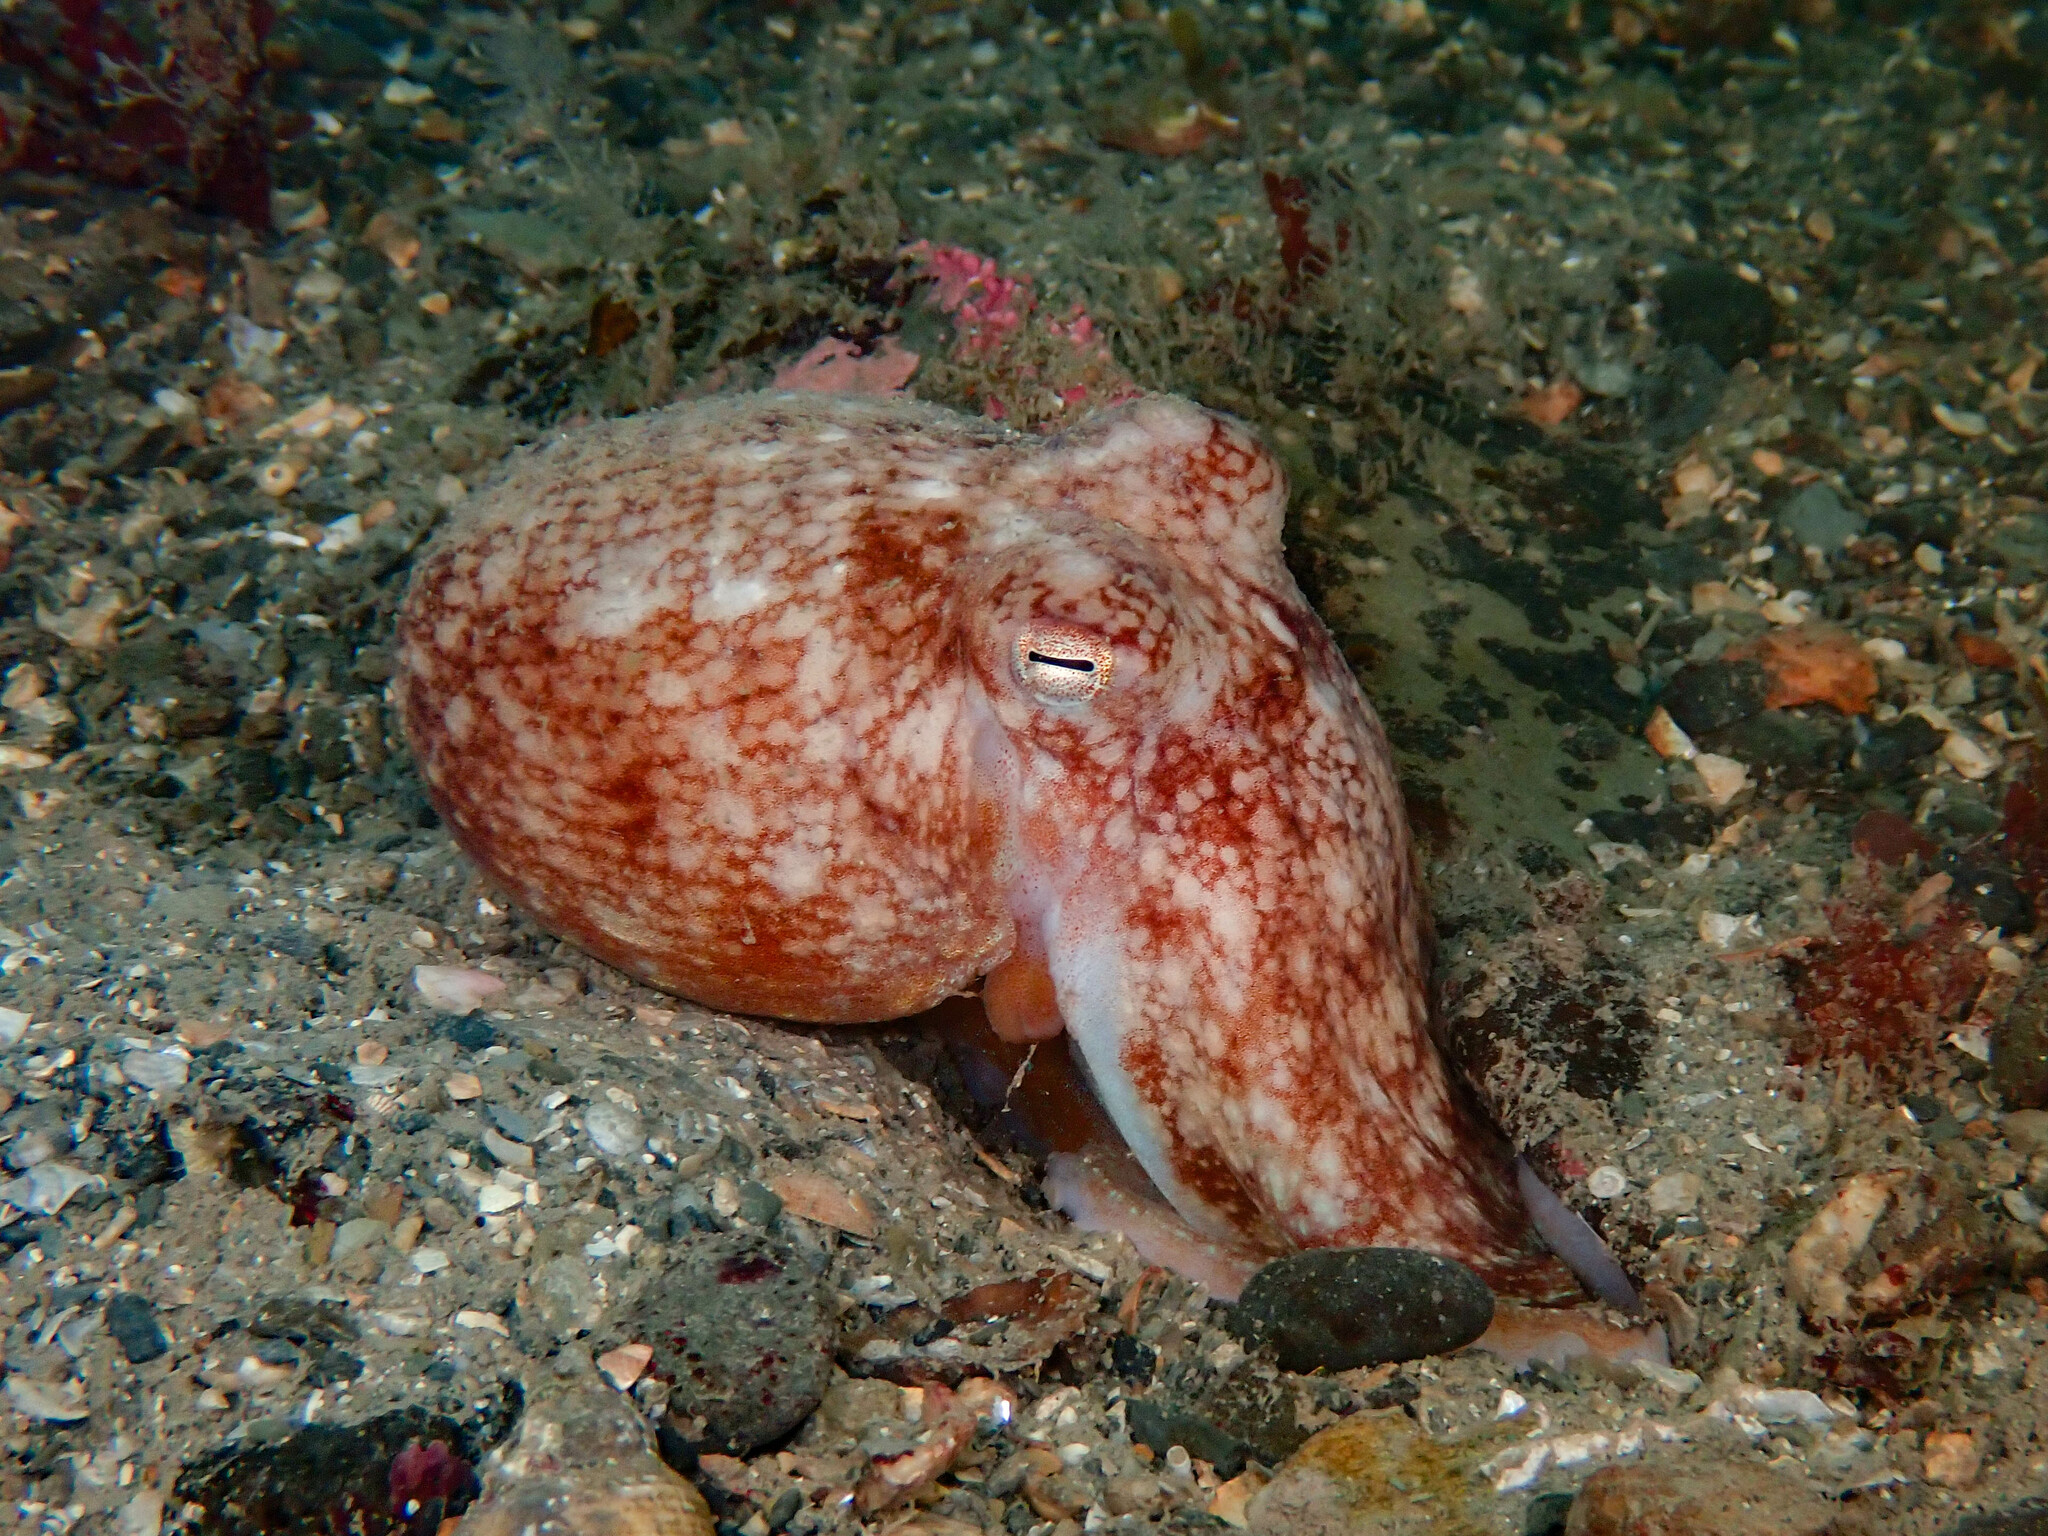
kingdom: Animalia
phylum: Mollusca
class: Cephalopoda
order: Octopoda
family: Eledonidae
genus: Eledone
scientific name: Eledone cirrhosa
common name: Curled octopus
